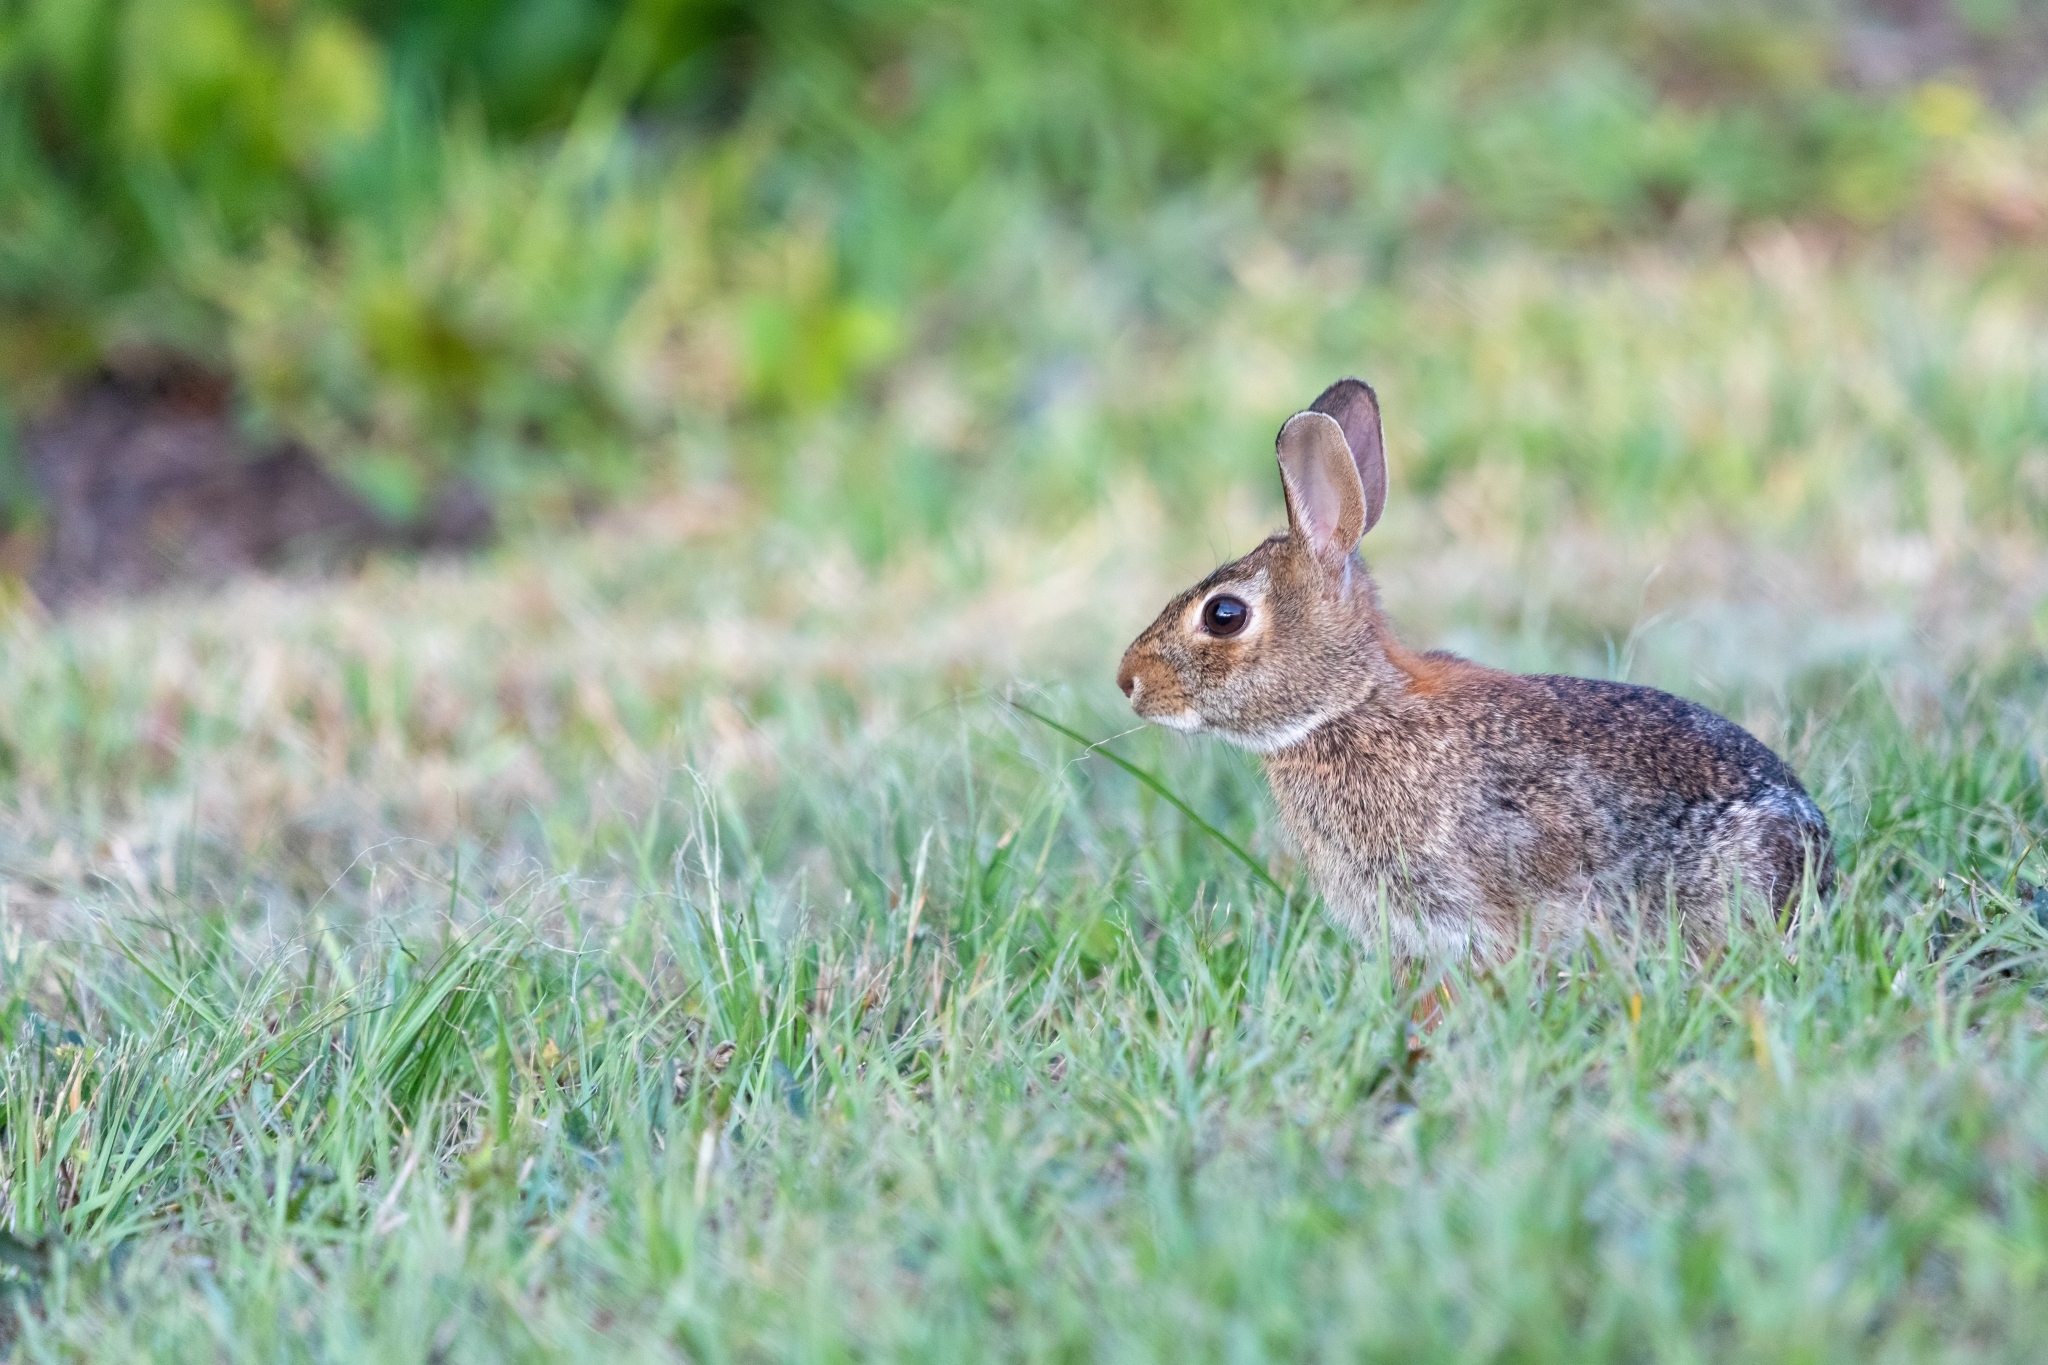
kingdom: Animalia
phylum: Chordata
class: Mammalia
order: Lagomorpha
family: Leporidae
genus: Sylvilagus
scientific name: Sylvilagus floridanus
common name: Eastern cottontail
